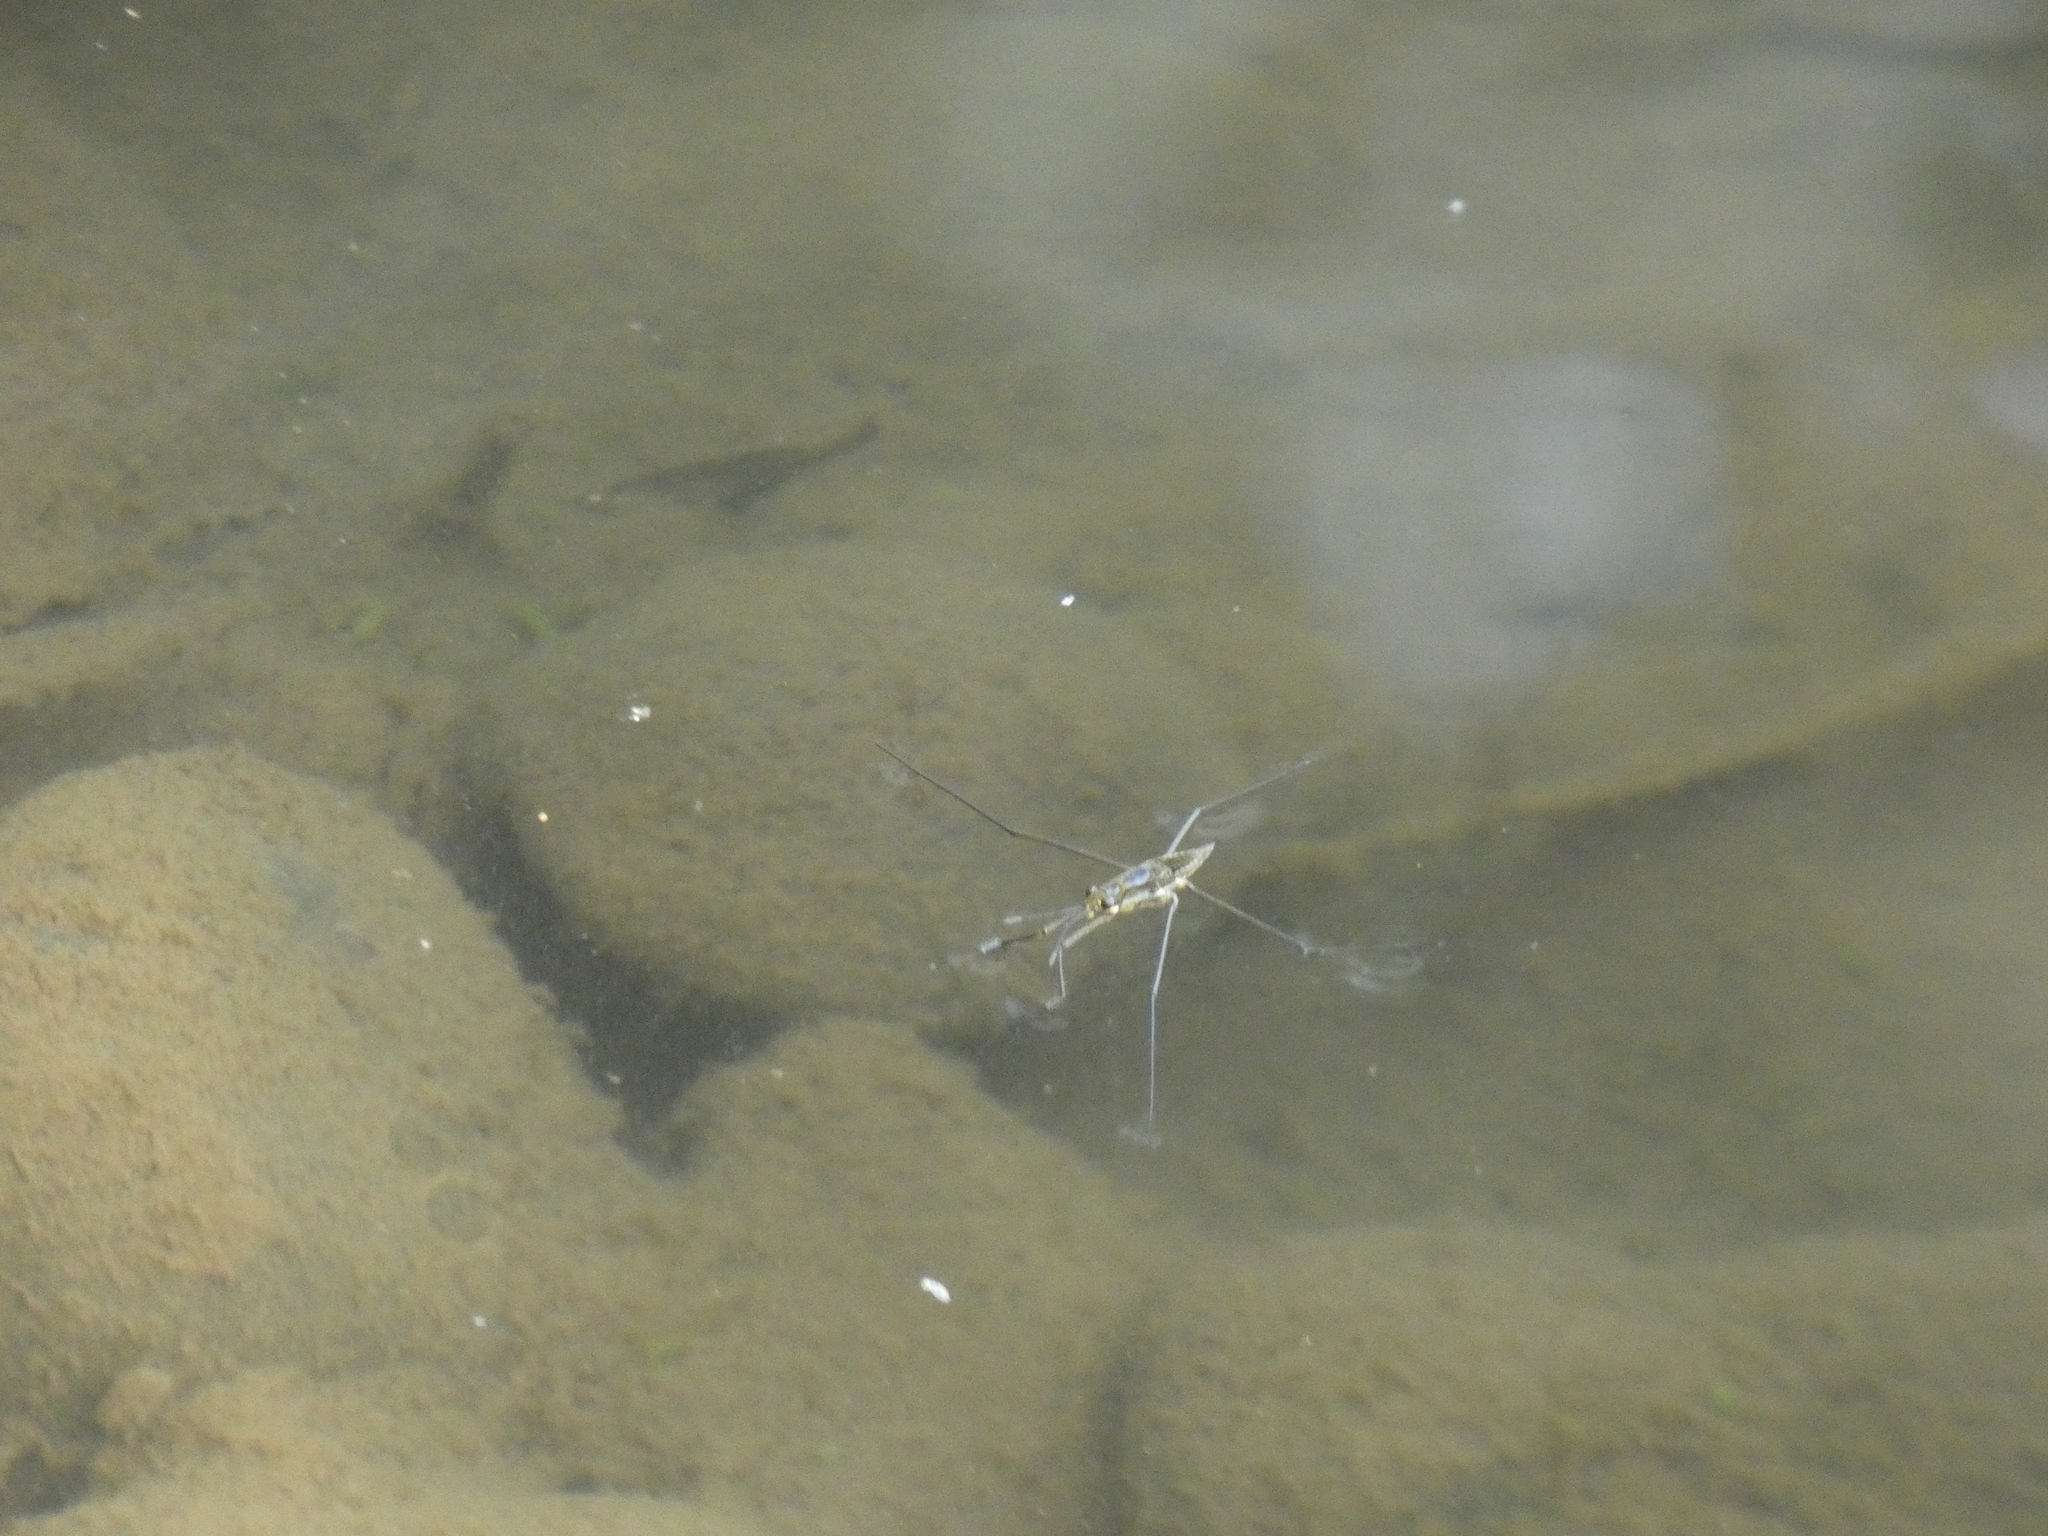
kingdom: Animalia
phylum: Arthropoda
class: Insecta
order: Hemiptera
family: Gerridae
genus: Aquarius
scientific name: Aquarius chilensis
